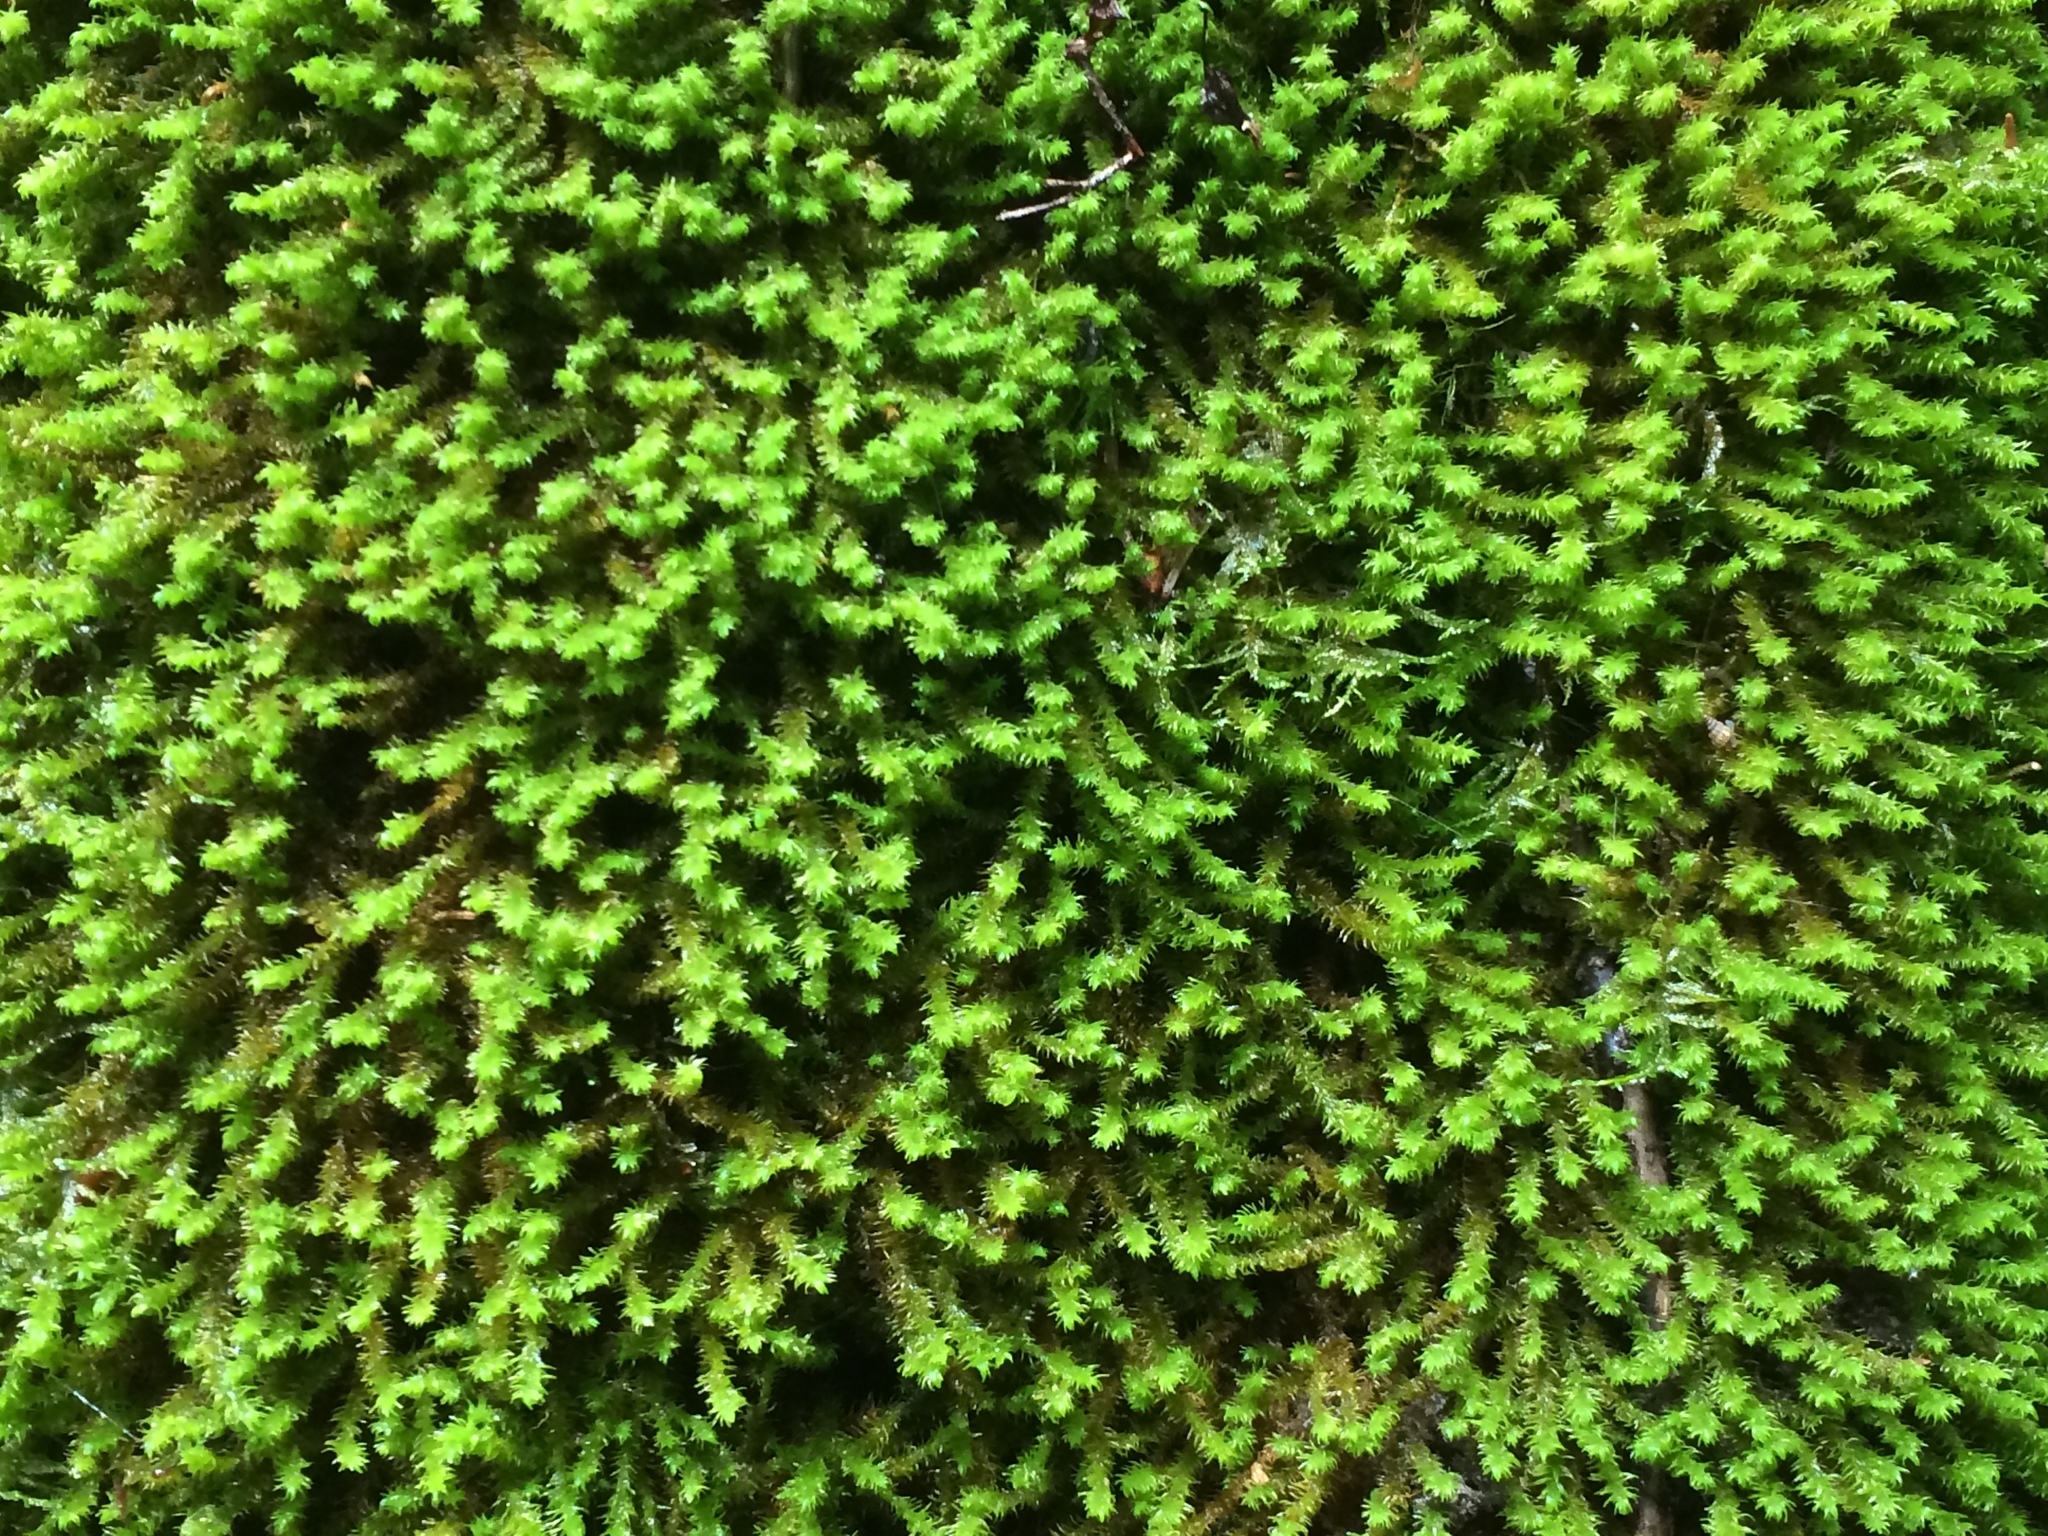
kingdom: Plantae
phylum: Bryophyta
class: Bryopsida
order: Hypnales
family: Anomodontaceae
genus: Anomodon
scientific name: Anomodon viticulosus
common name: Tall anomodon
